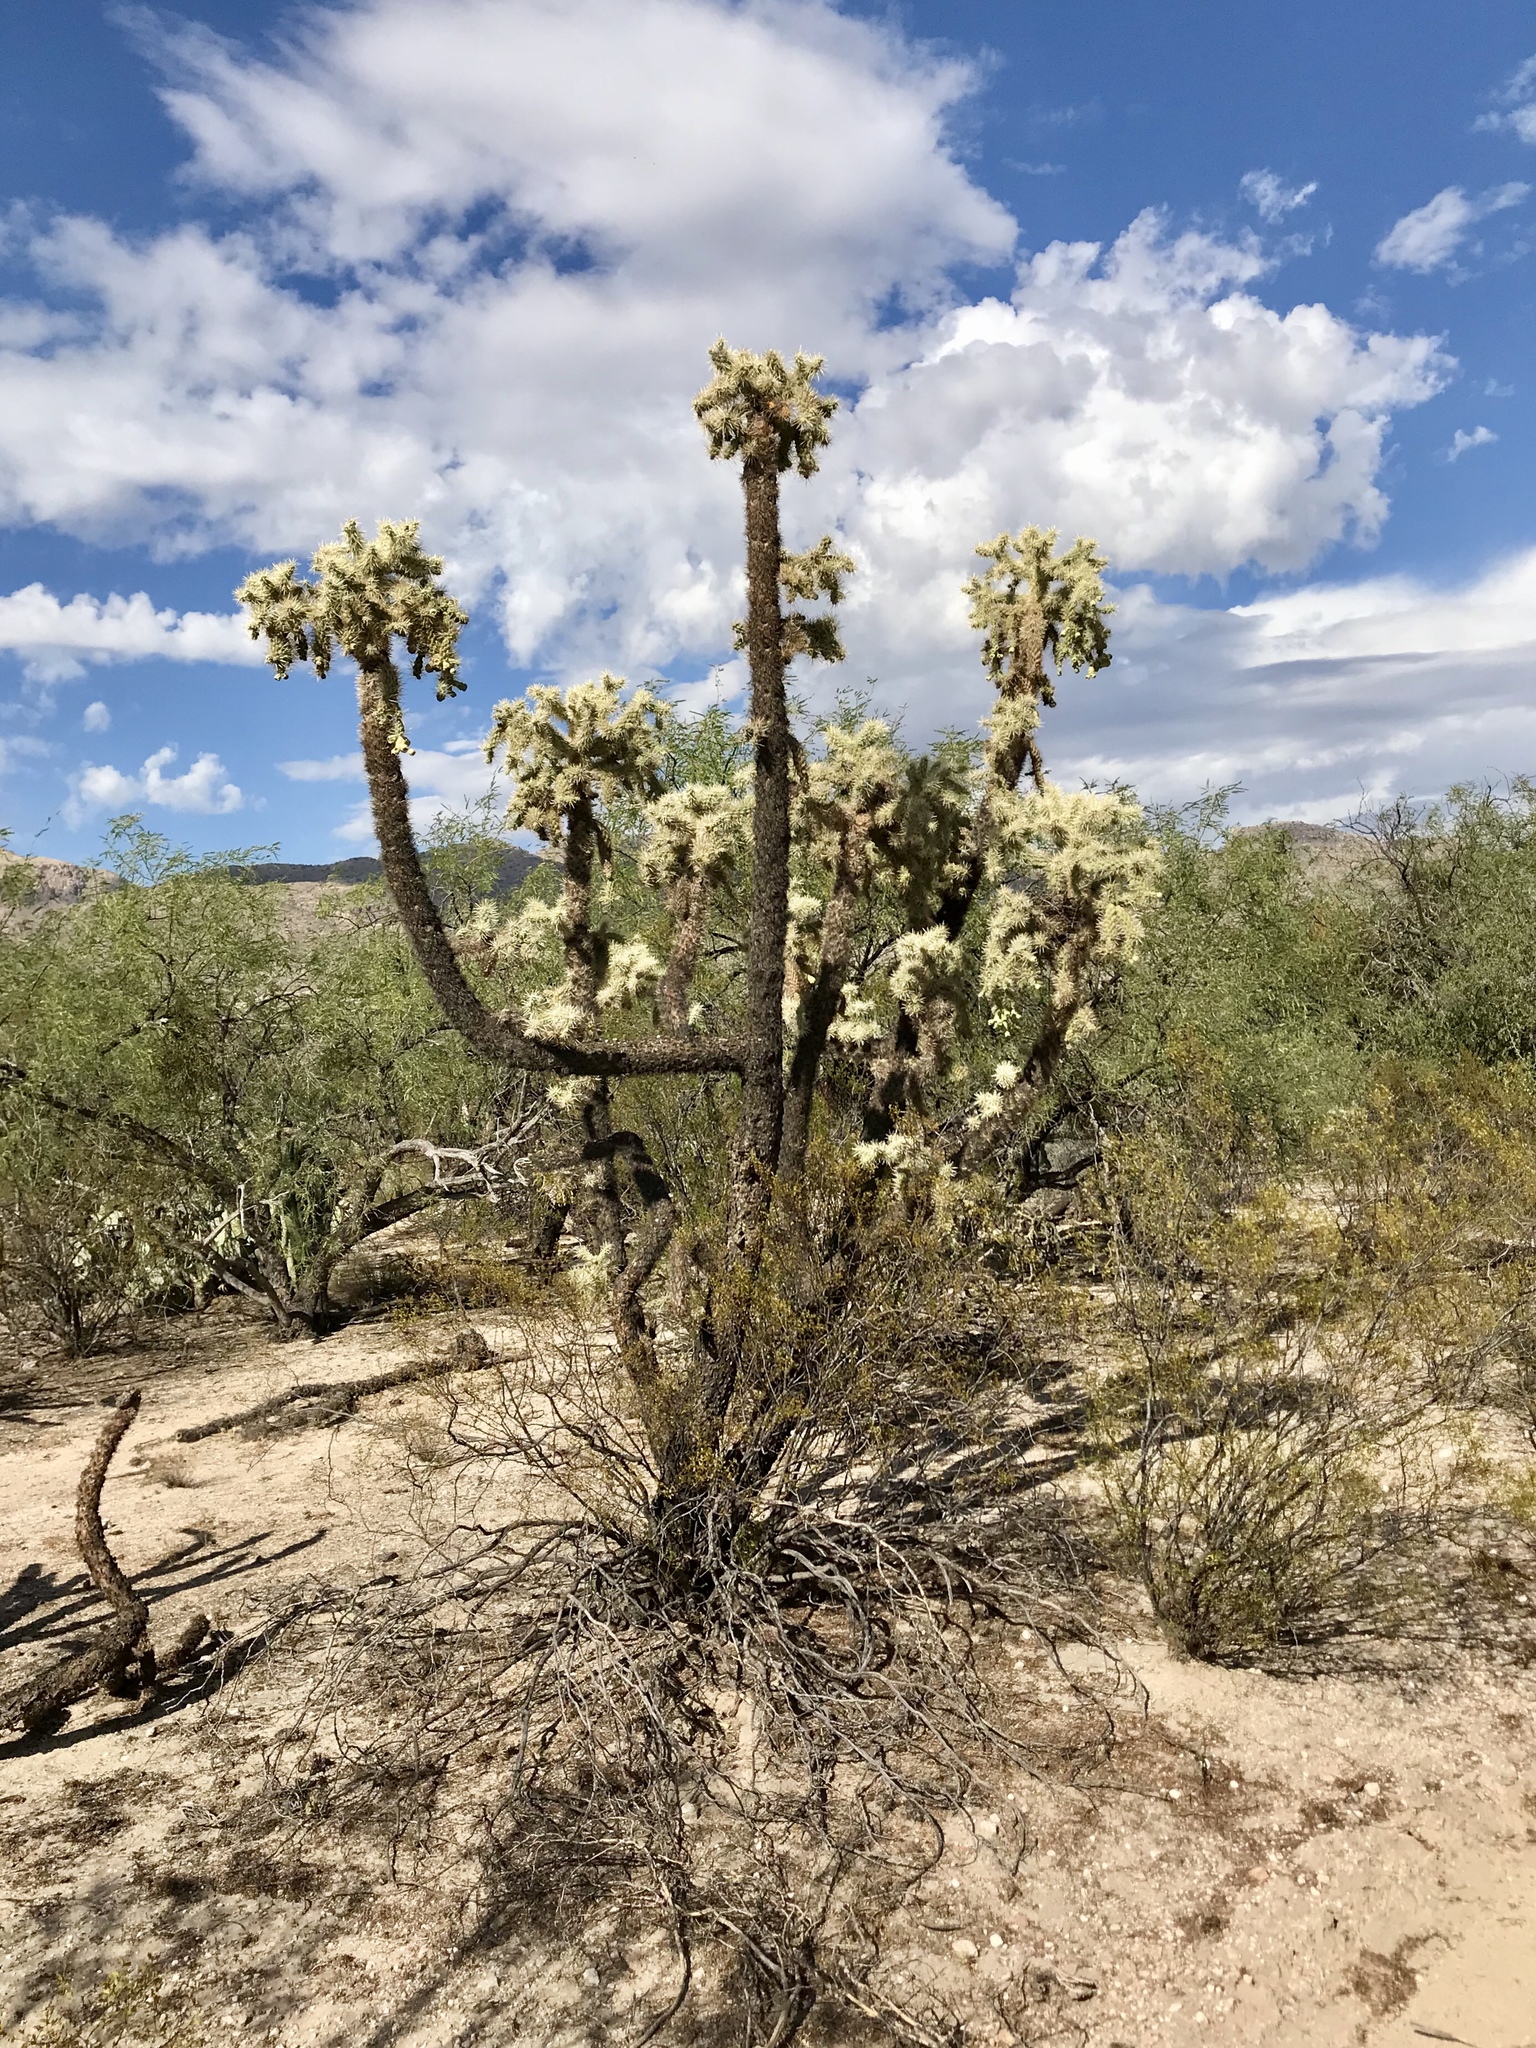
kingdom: Plantae
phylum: Tracheophyta
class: Magnoliopsida
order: Caryophyllales
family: Cactaceae
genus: Cylindropuntia
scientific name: Cylindropuntia fulgida
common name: Jumping cholla
